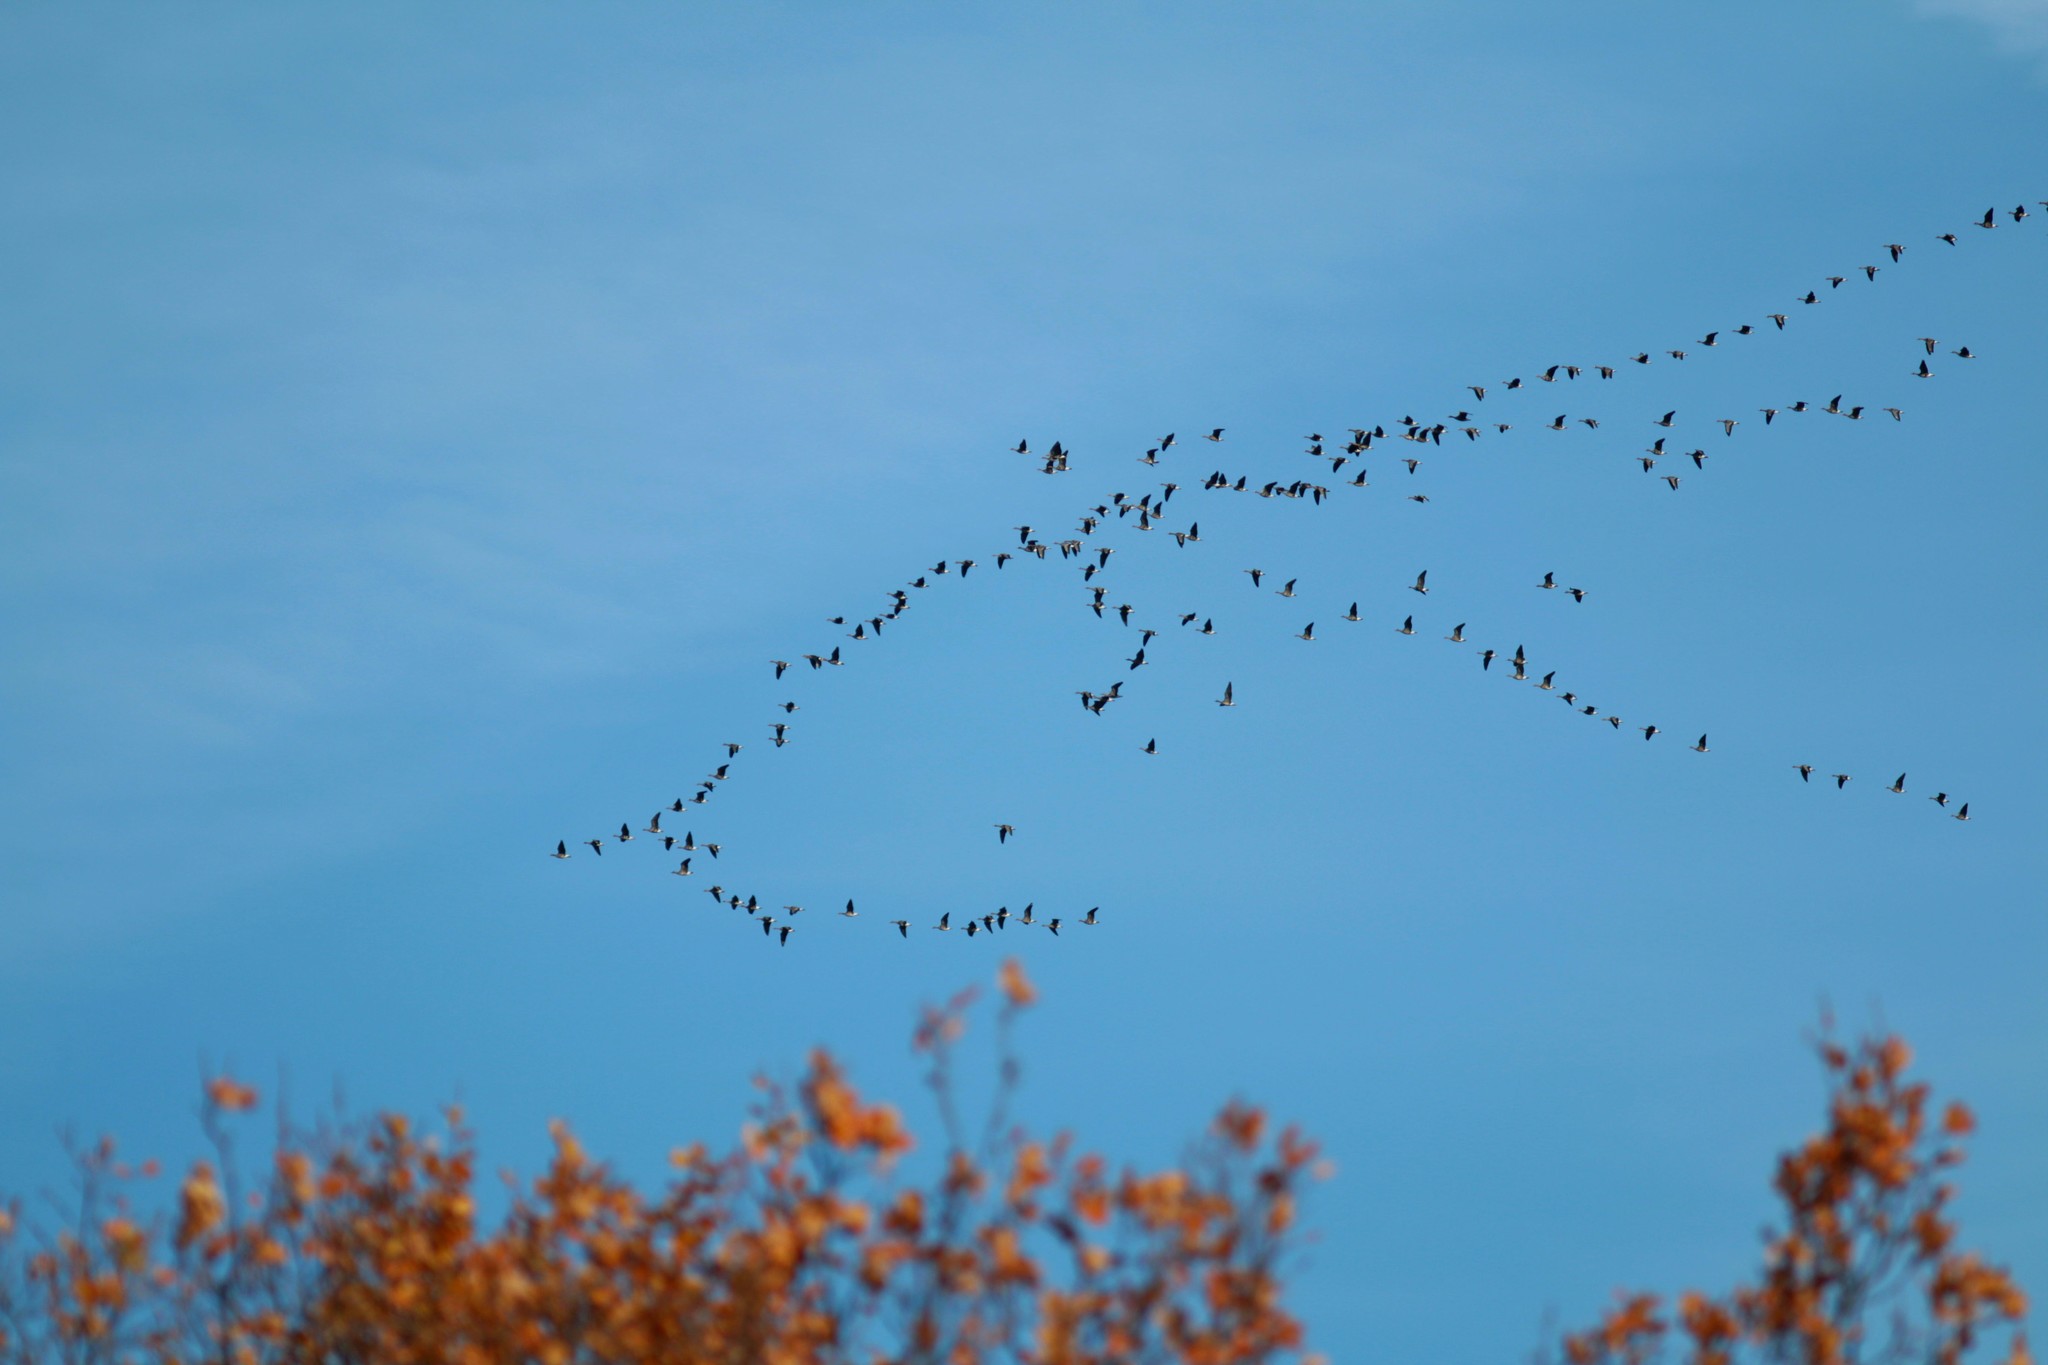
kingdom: Animalia
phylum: Chordata
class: Aves
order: Anseriformes
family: Anatidae
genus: Anser
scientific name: Anser albifrons
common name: Greater white-fronted goose
